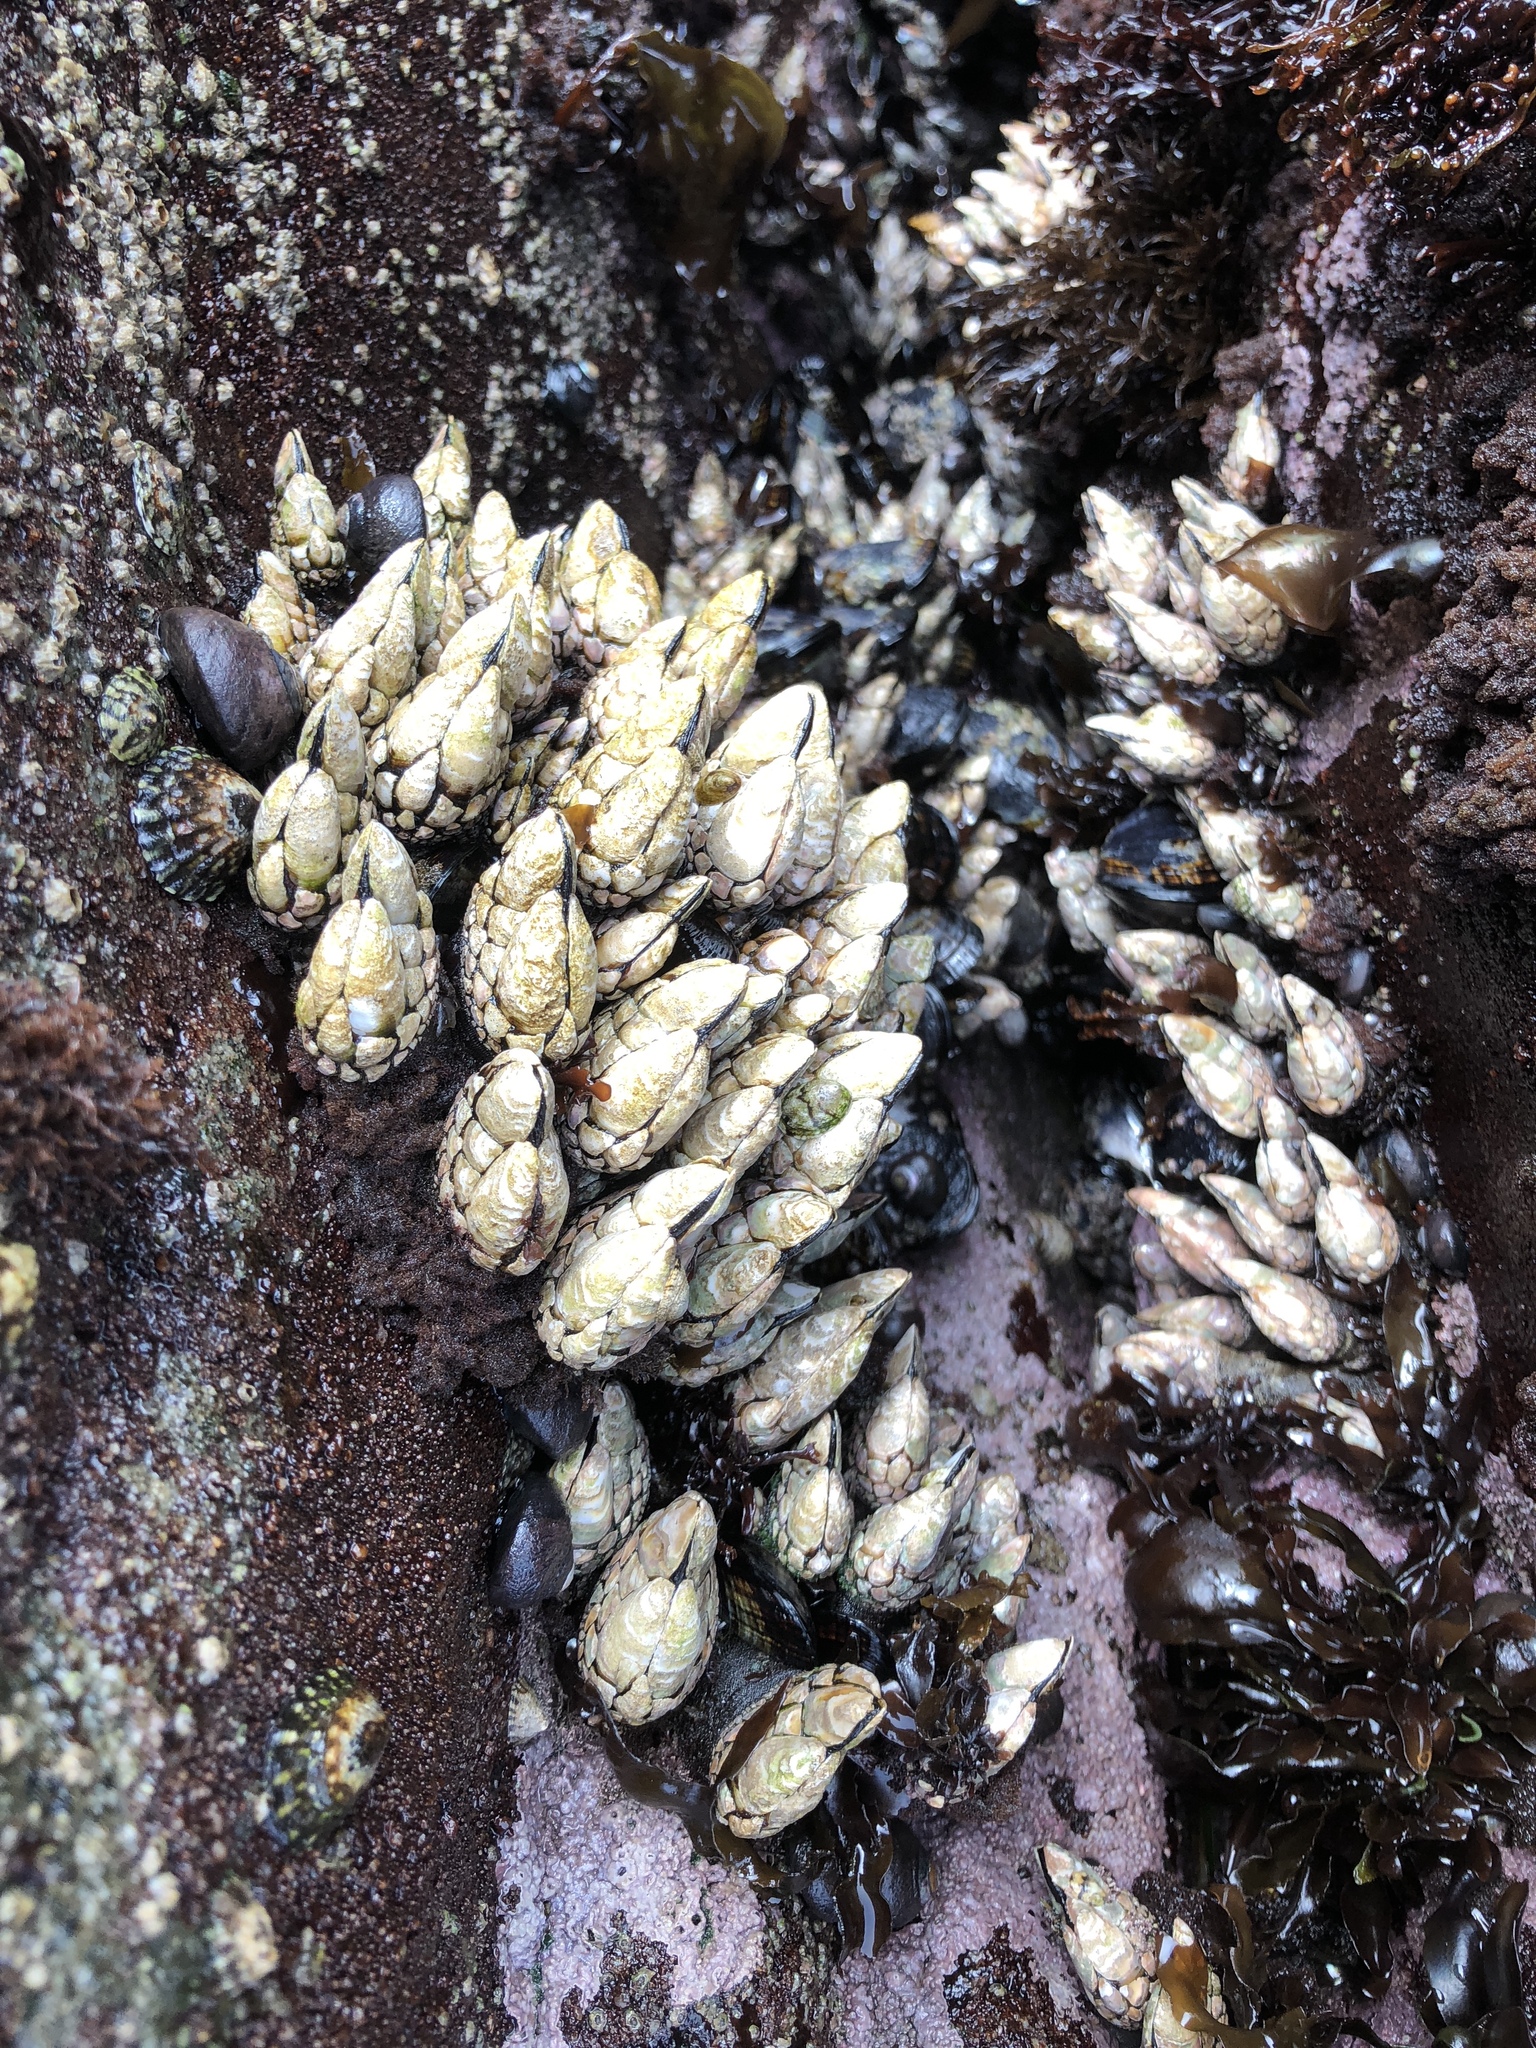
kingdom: Animalia
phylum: Arthropoda
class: Maxillopoda
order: Pedunculata
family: Pollicipedidae
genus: Pollicipes
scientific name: Pollicipes polymerus
